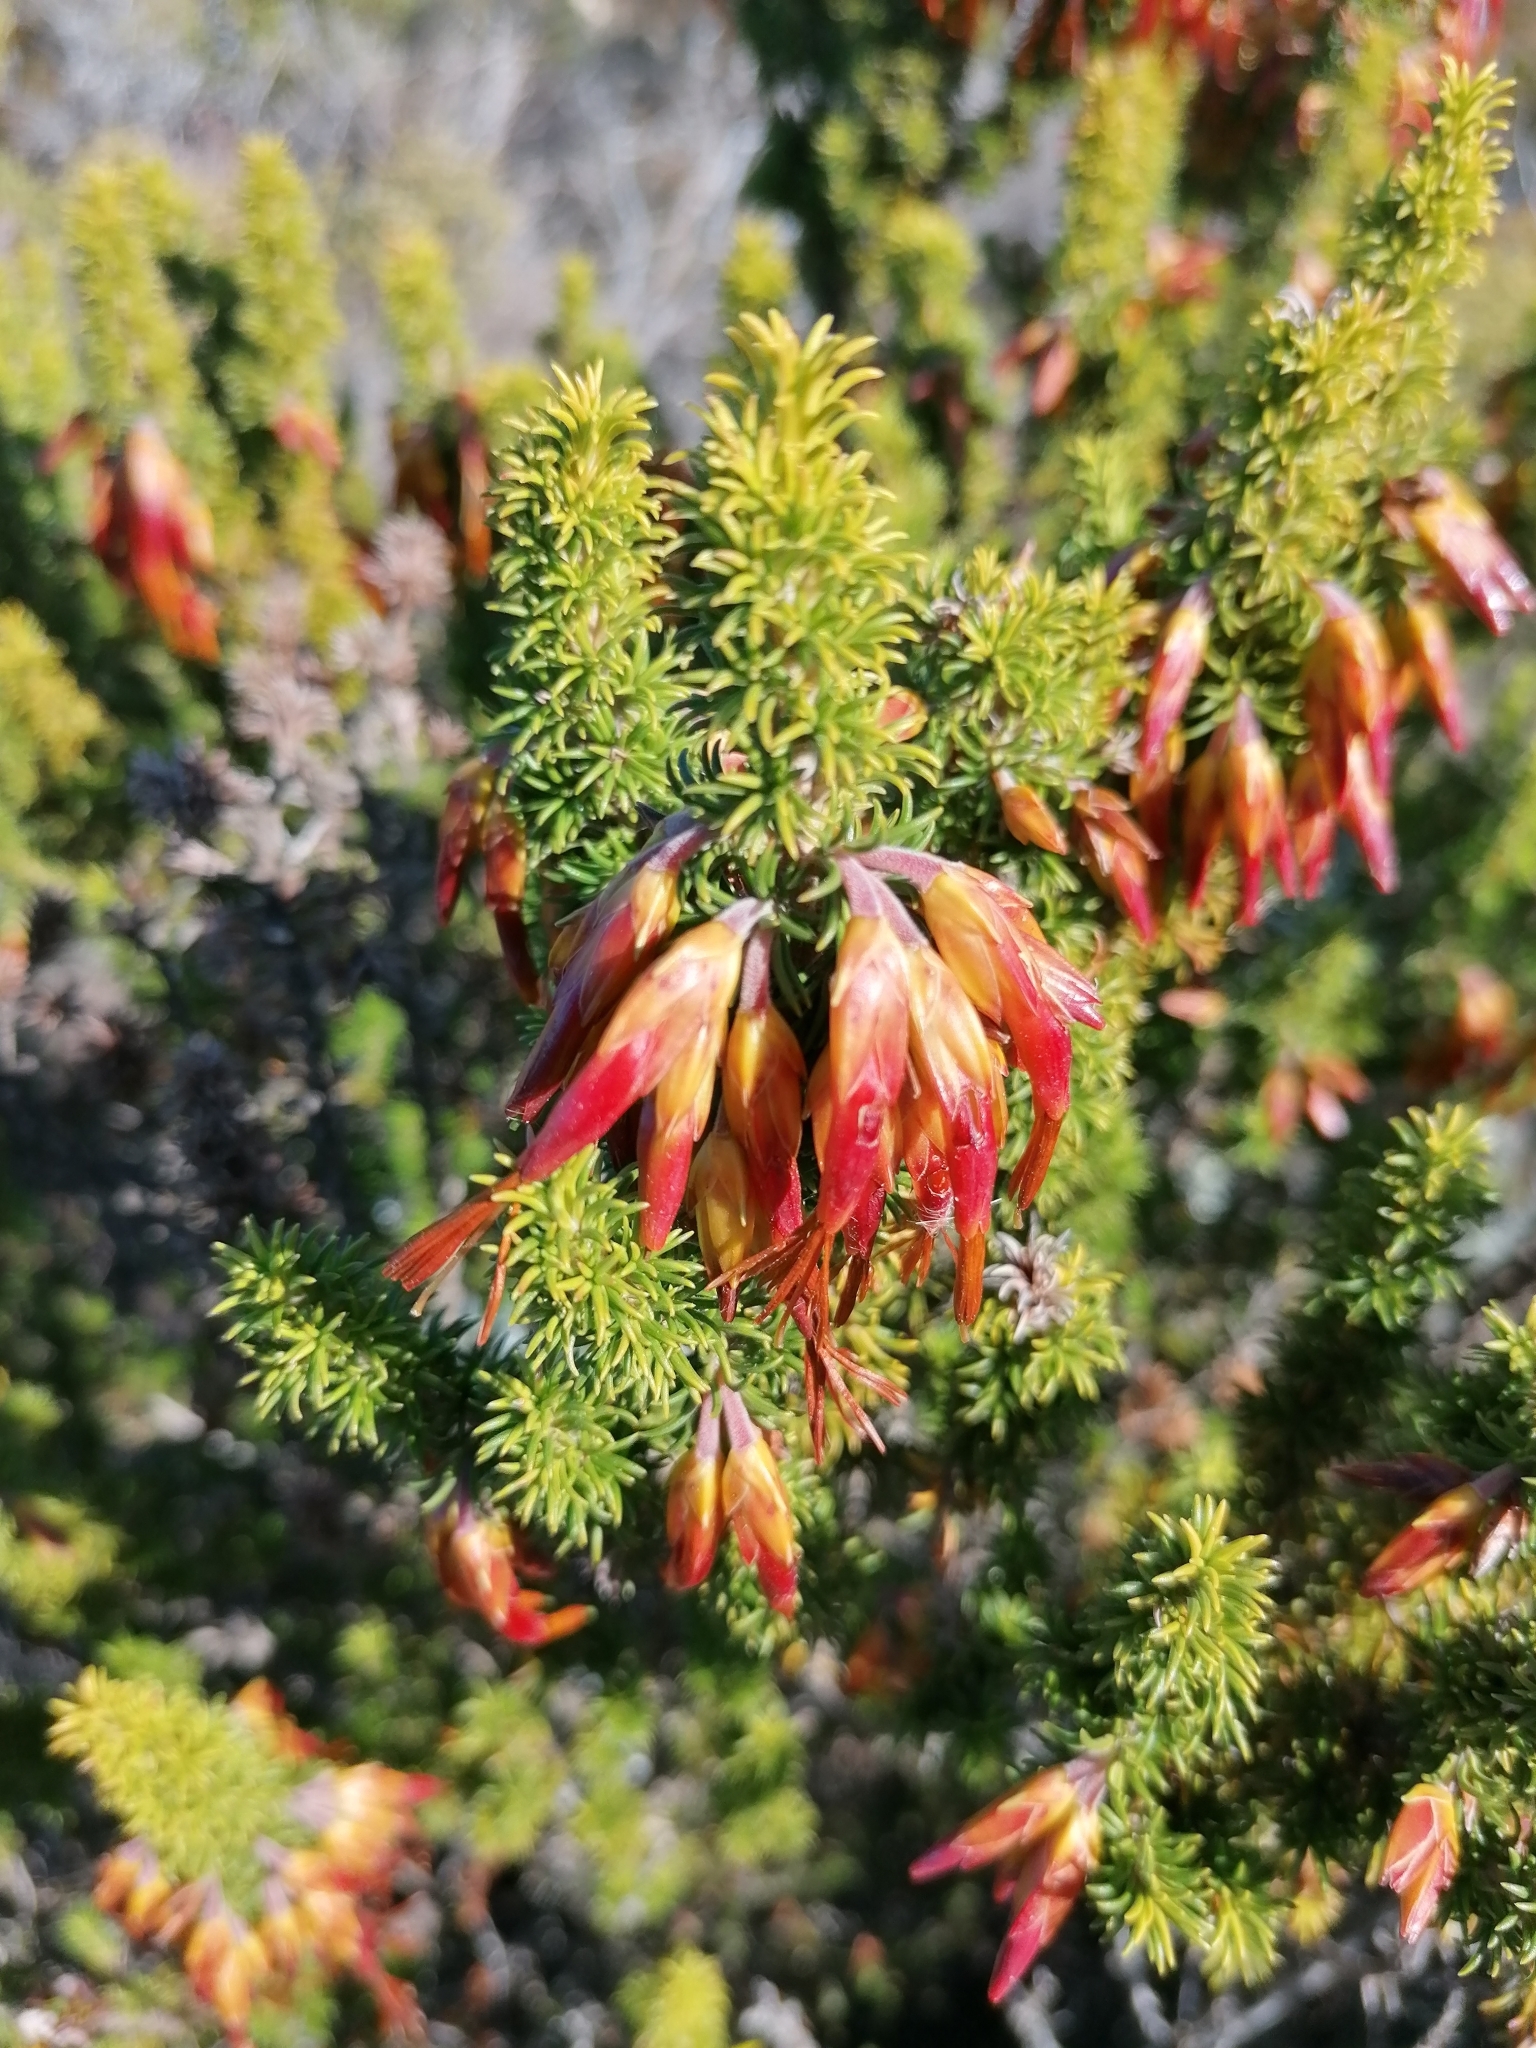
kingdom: Plantae
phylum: Tracheophyta
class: Magnoliopsida
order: Ericales
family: Ericaceae
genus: Erica
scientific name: Erica coccinea
